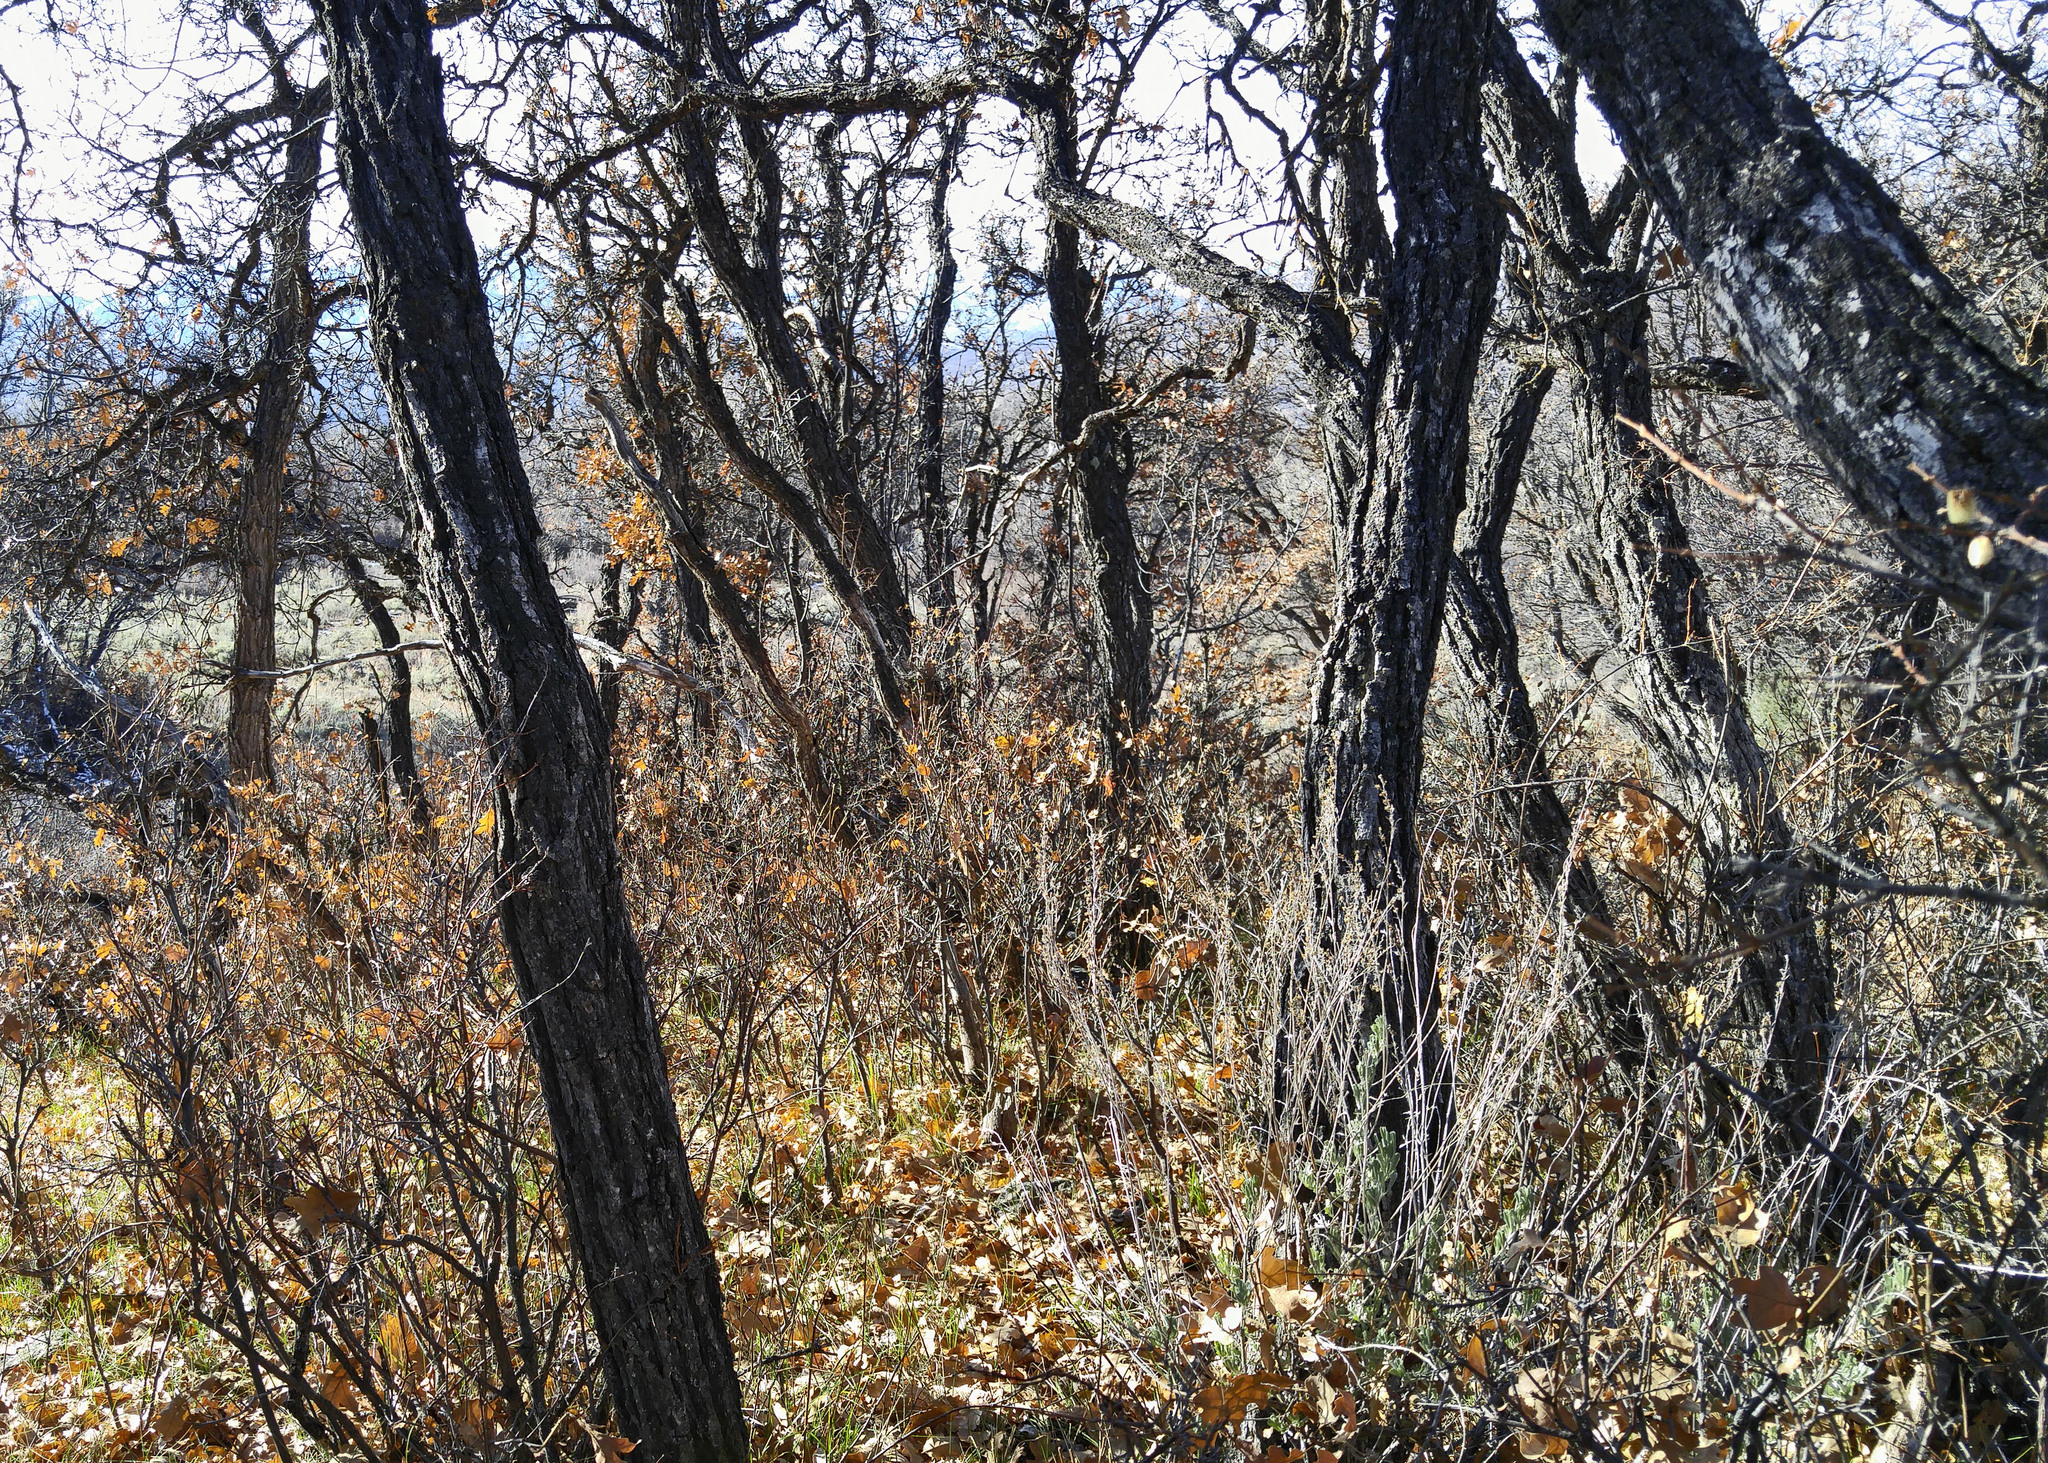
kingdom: Plantae
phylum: Tracheophyta
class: Magnoliopsida
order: Fagales
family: Fagaceae
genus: Quercus
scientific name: Quercus gambelii
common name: Gambel oak
